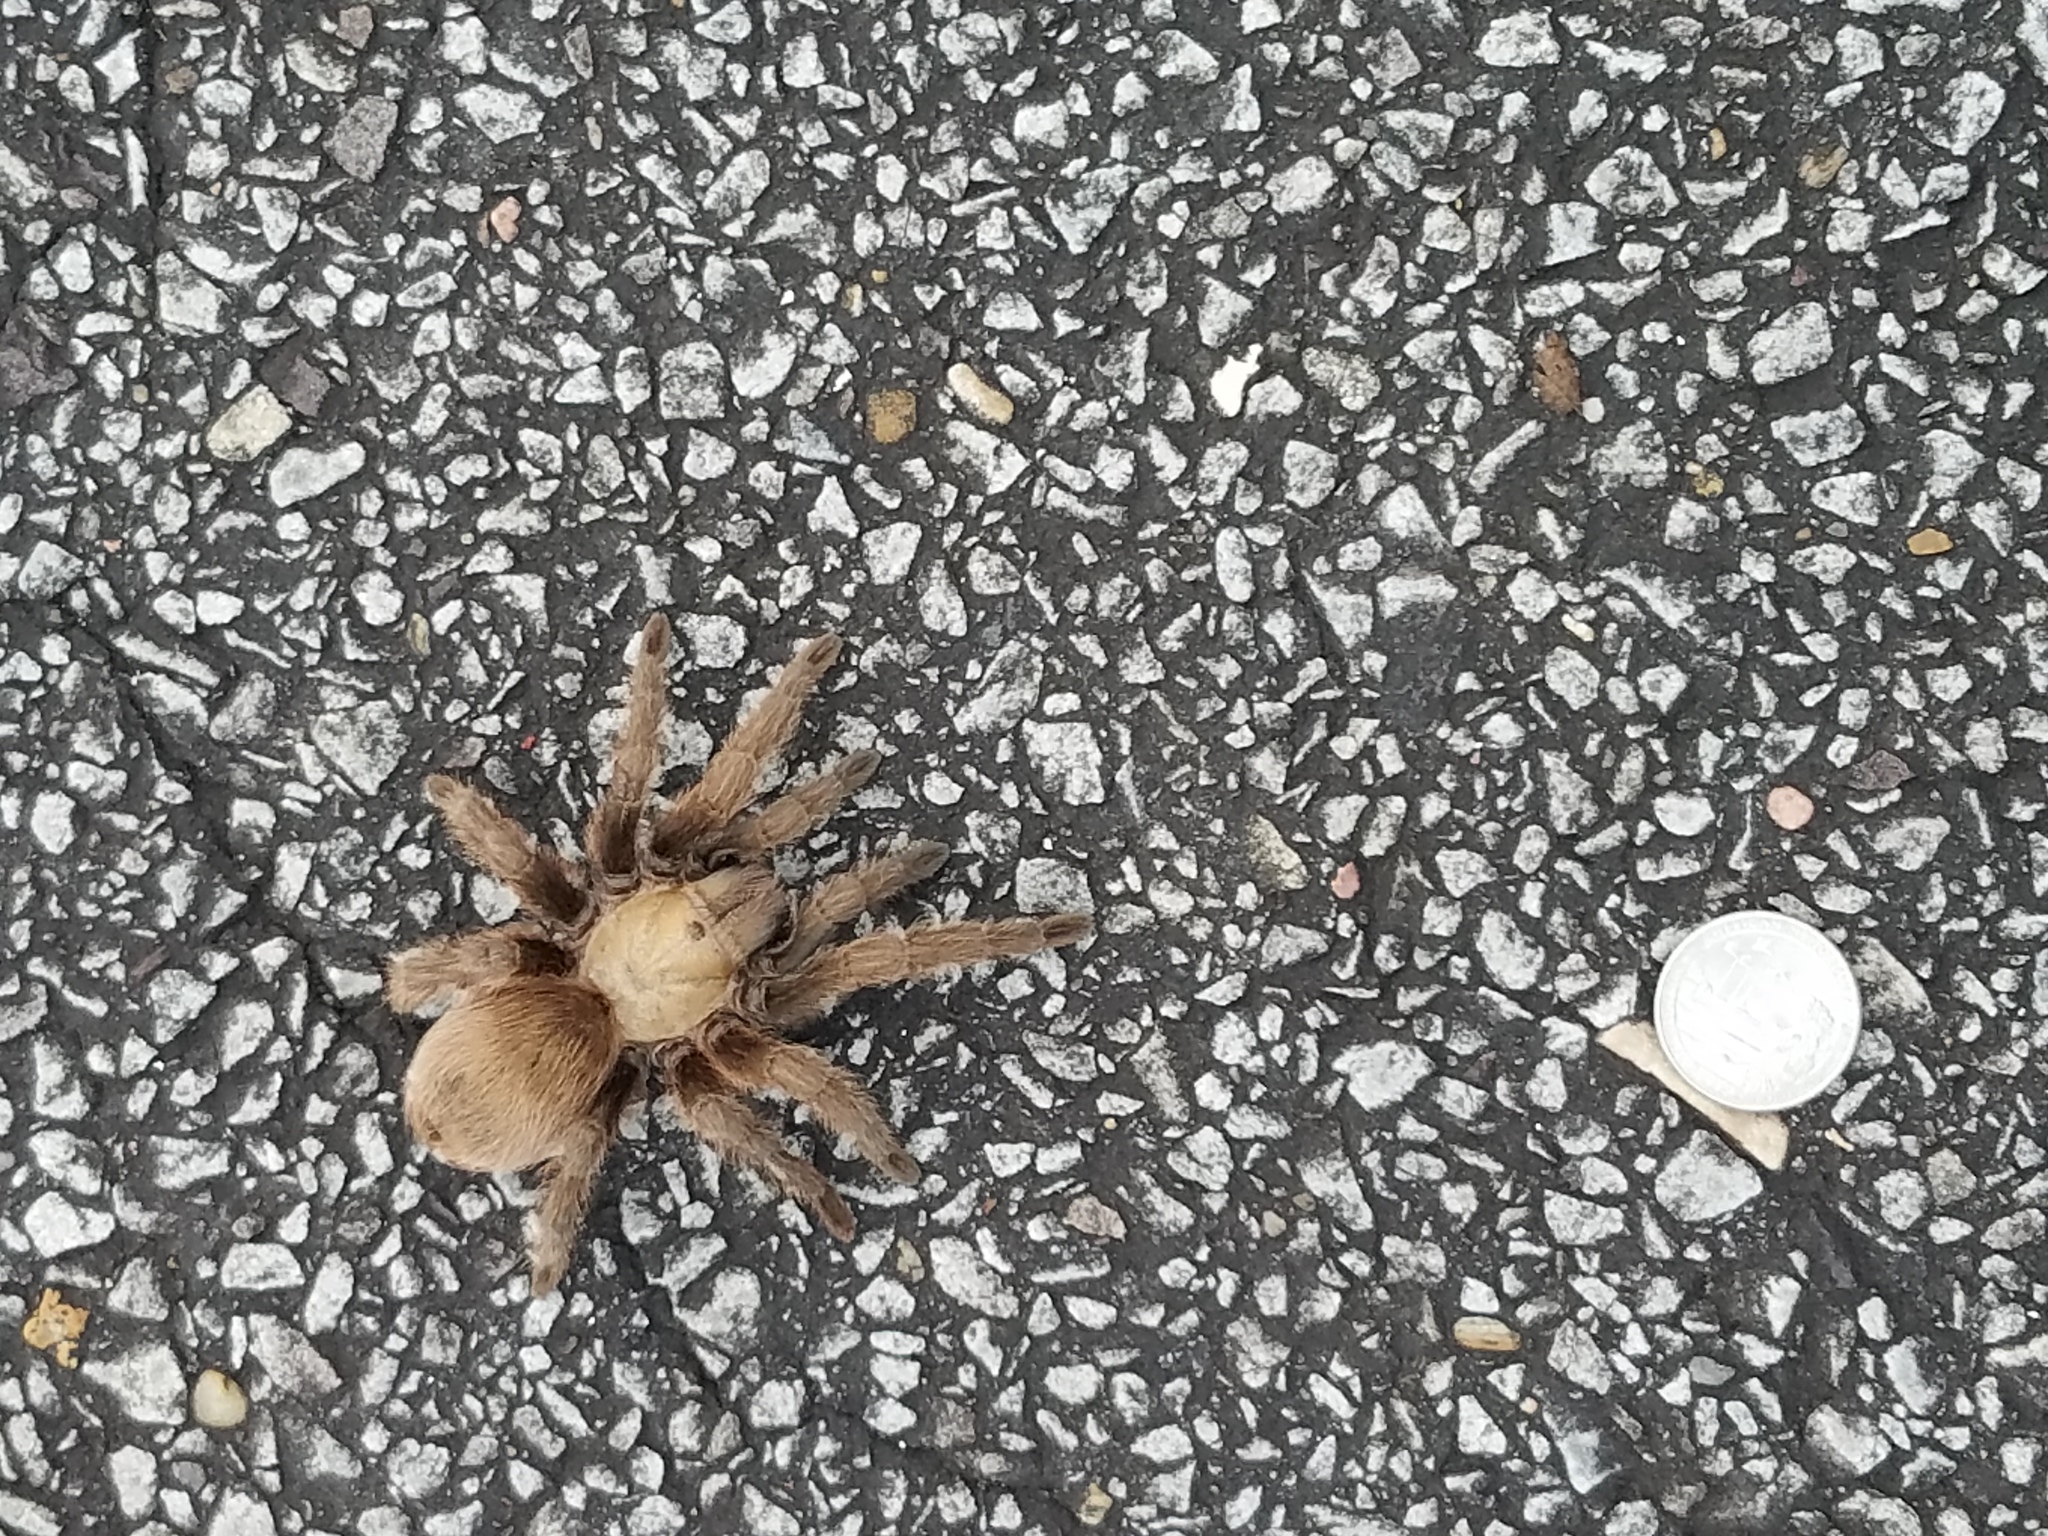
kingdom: Animalia
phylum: Arthropoda
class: Arachnida
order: Araneae
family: Theraphosidae
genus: Aphonopelma
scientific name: Aphonopelma hentzi
